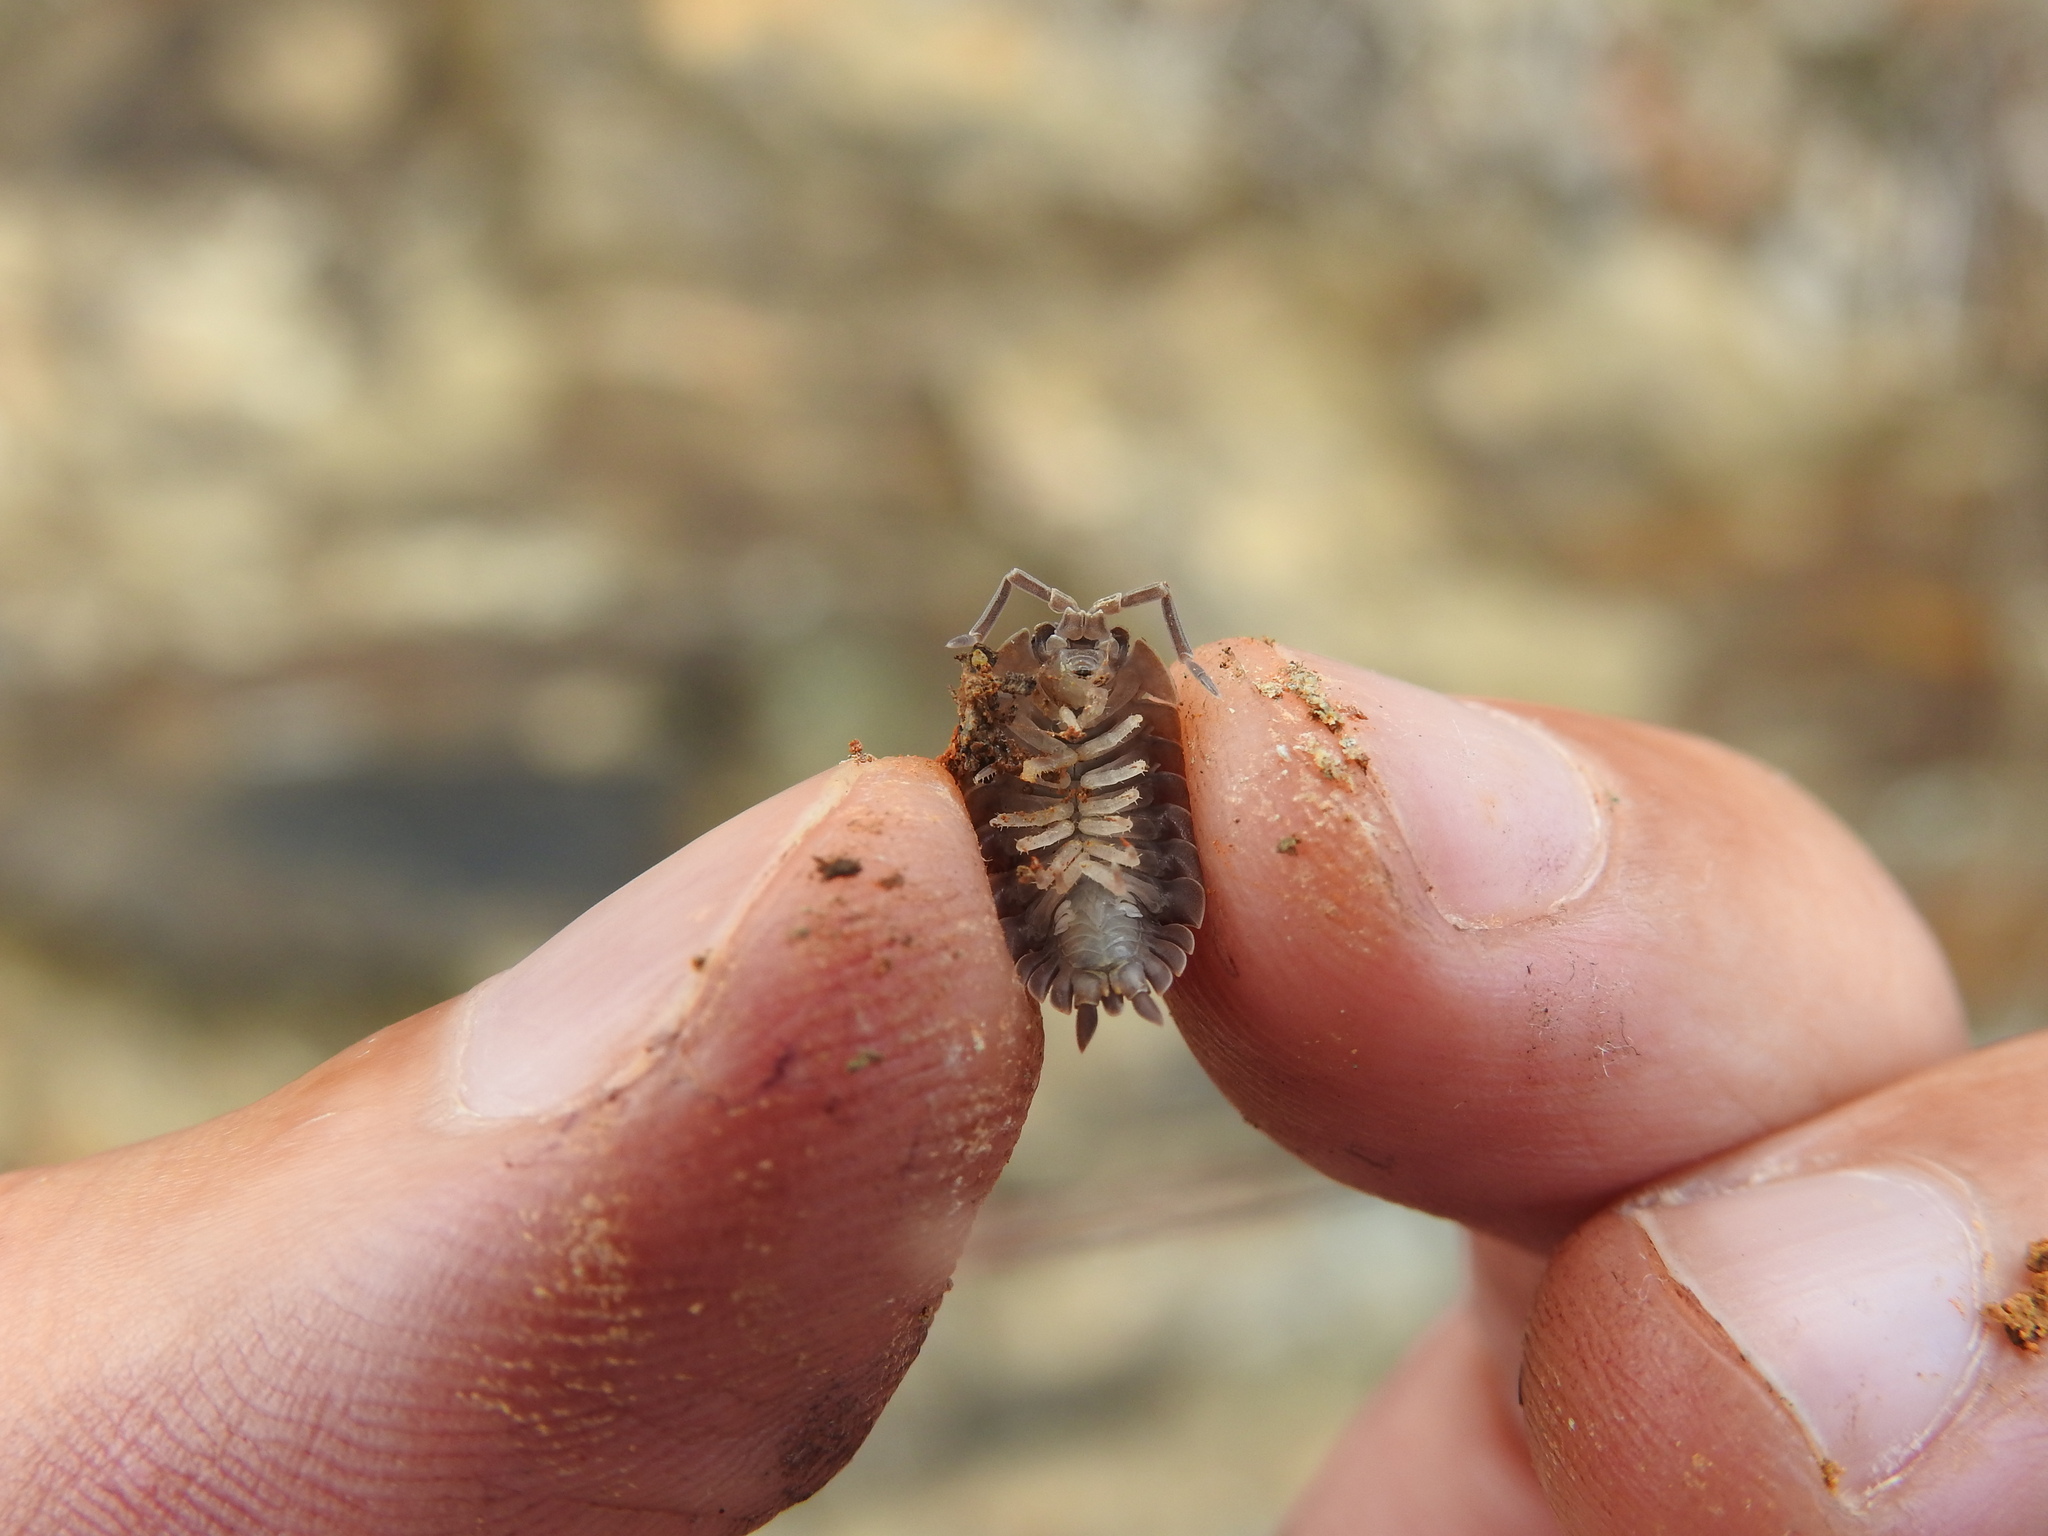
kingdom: Animalia
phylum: Arthropoda
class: Malacostraca
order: Isopoda
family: Porcellionidae
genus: Porcellio
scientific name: Porcellio echinatus
